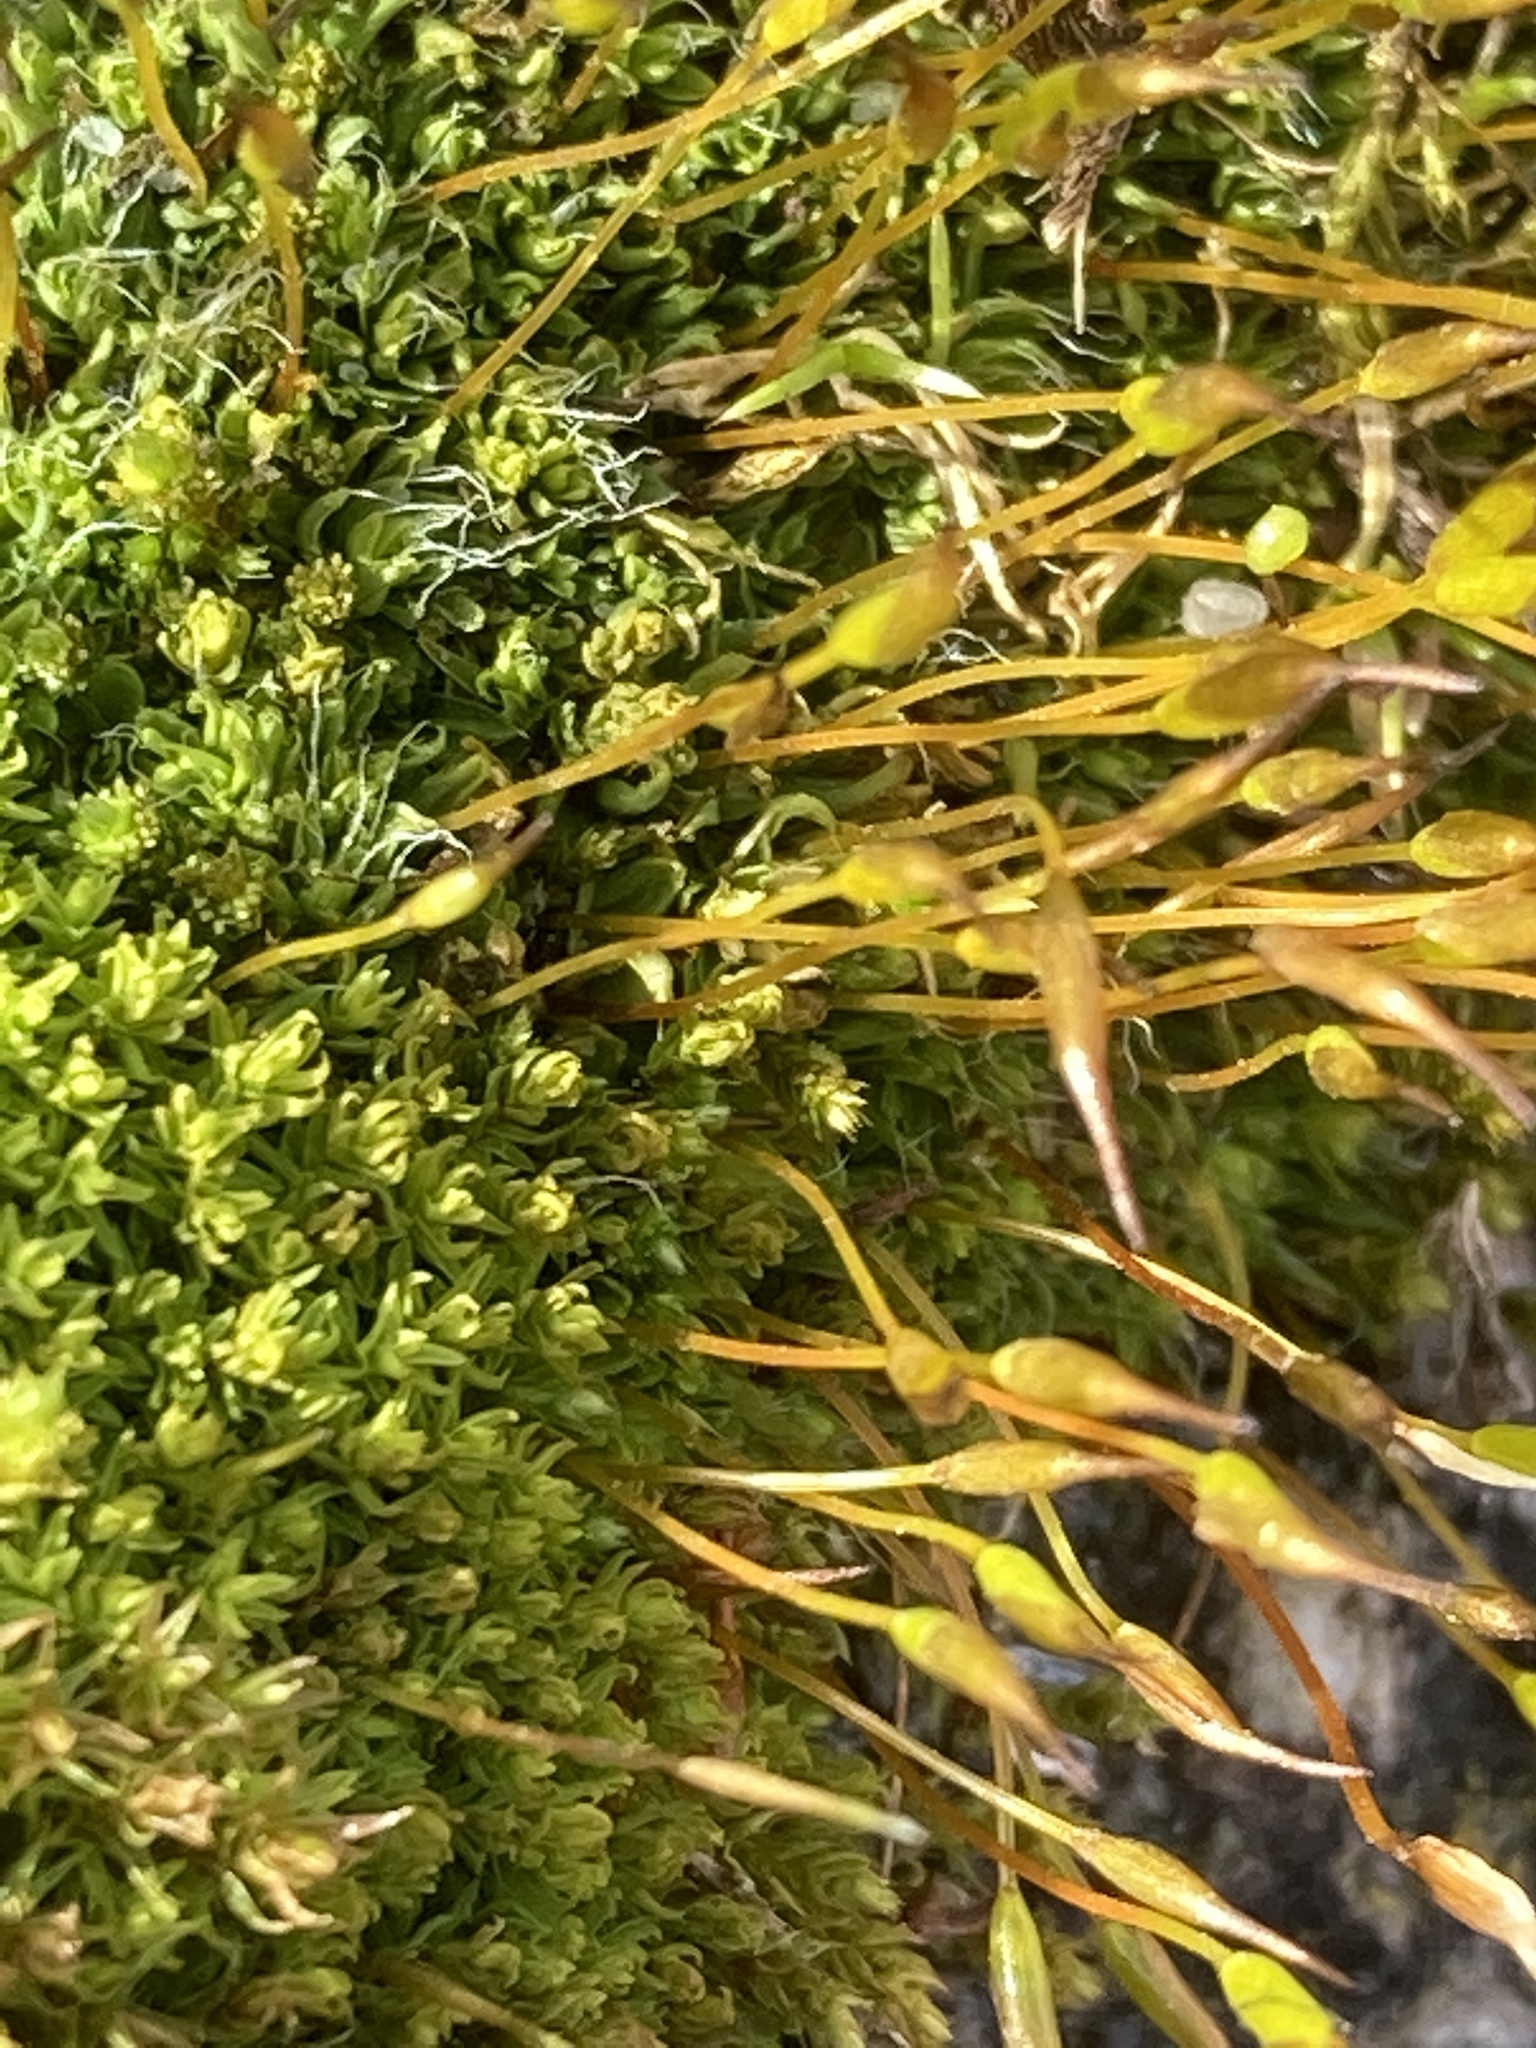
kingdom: Plantae
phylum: Bryophyta
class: Bryopsida
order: Pottiales
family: Pottiaceae
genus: Tortula
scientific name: Tortula muralis
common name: Wall screw-moss
